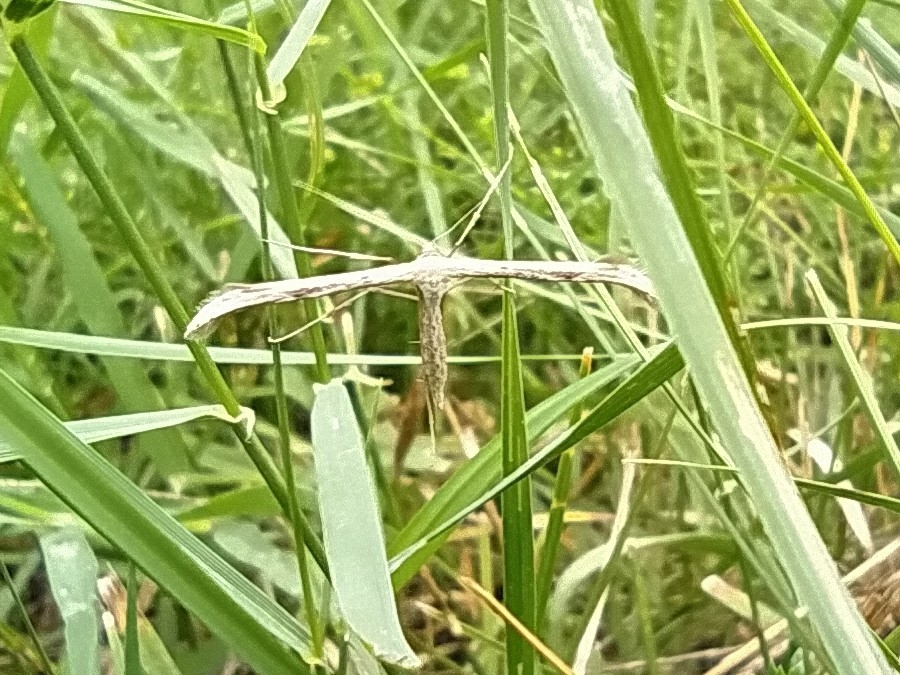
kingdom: Animalia
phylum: Arthropoda
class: Insecta
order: Lepidoptera
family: Pterophoridae
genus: Emmelina
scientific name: Emmelina monodactyla
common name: Common plume
